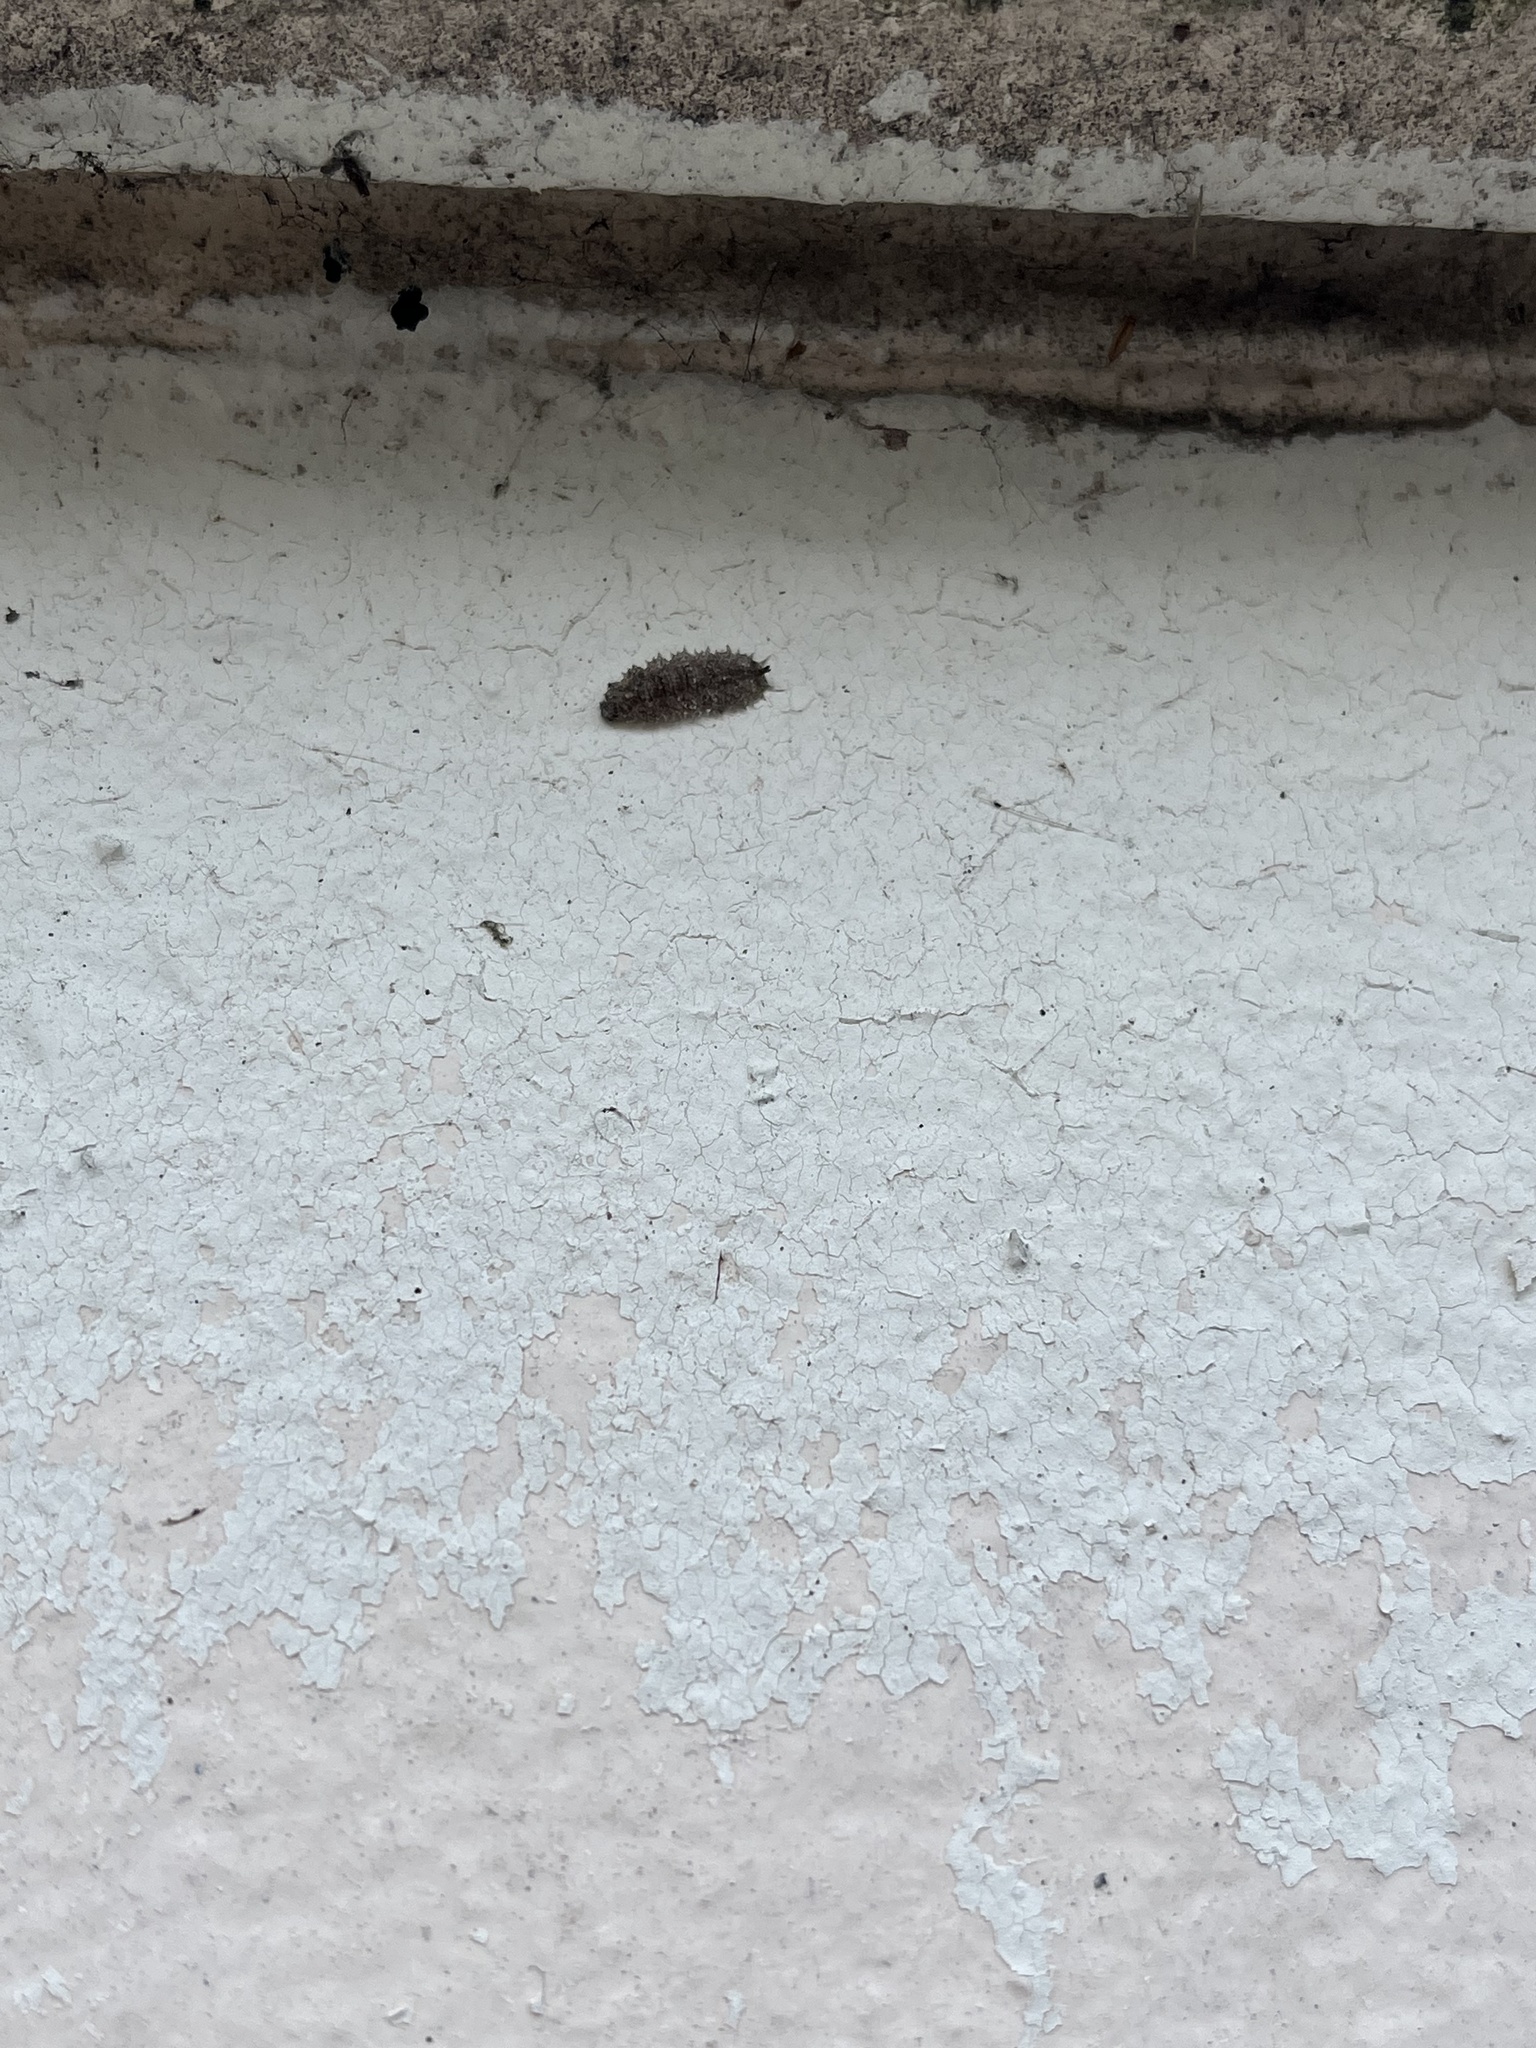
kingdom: Animalia
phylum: Arthropoda
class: Insecta
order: Diptera
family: Syrphidae
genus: Dasysyrphus
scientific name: Dasysyrphus
